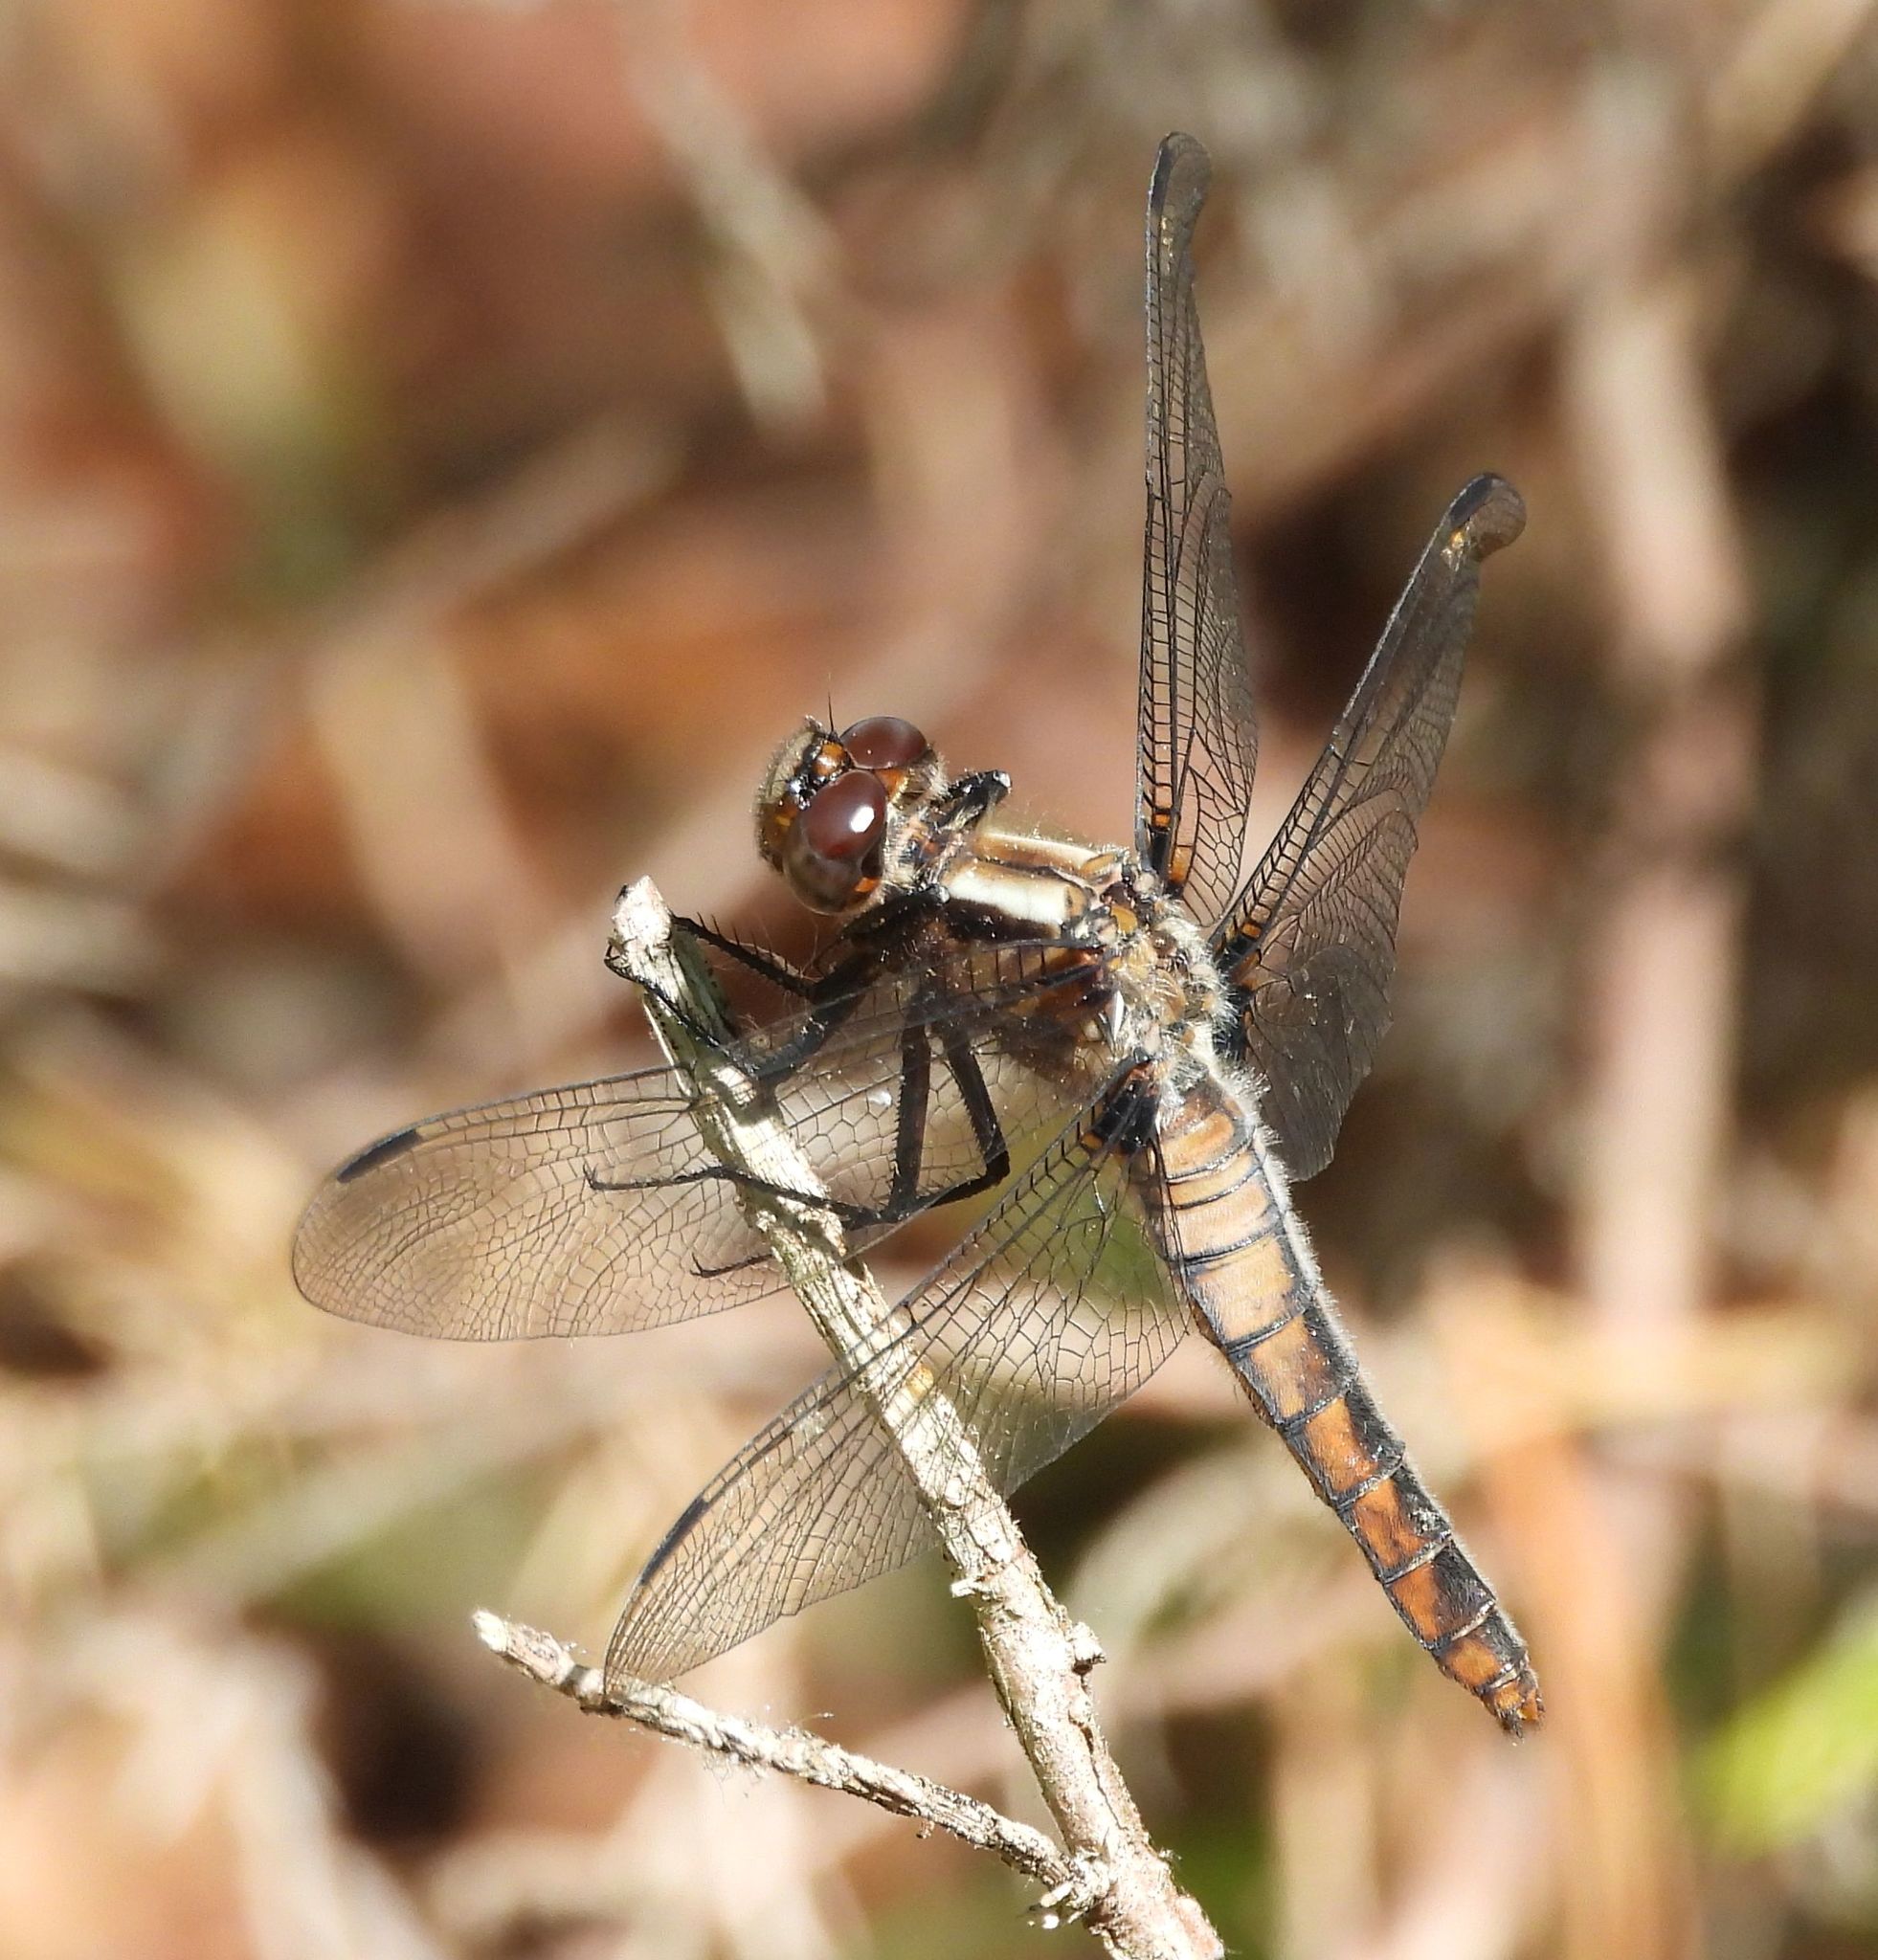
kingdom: Animalia
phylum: Arthropoda
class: Insecta
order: Odonata
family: Libellulidae
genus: Ladona
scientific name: Ladona julia
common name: Chalk-fronted corporal
